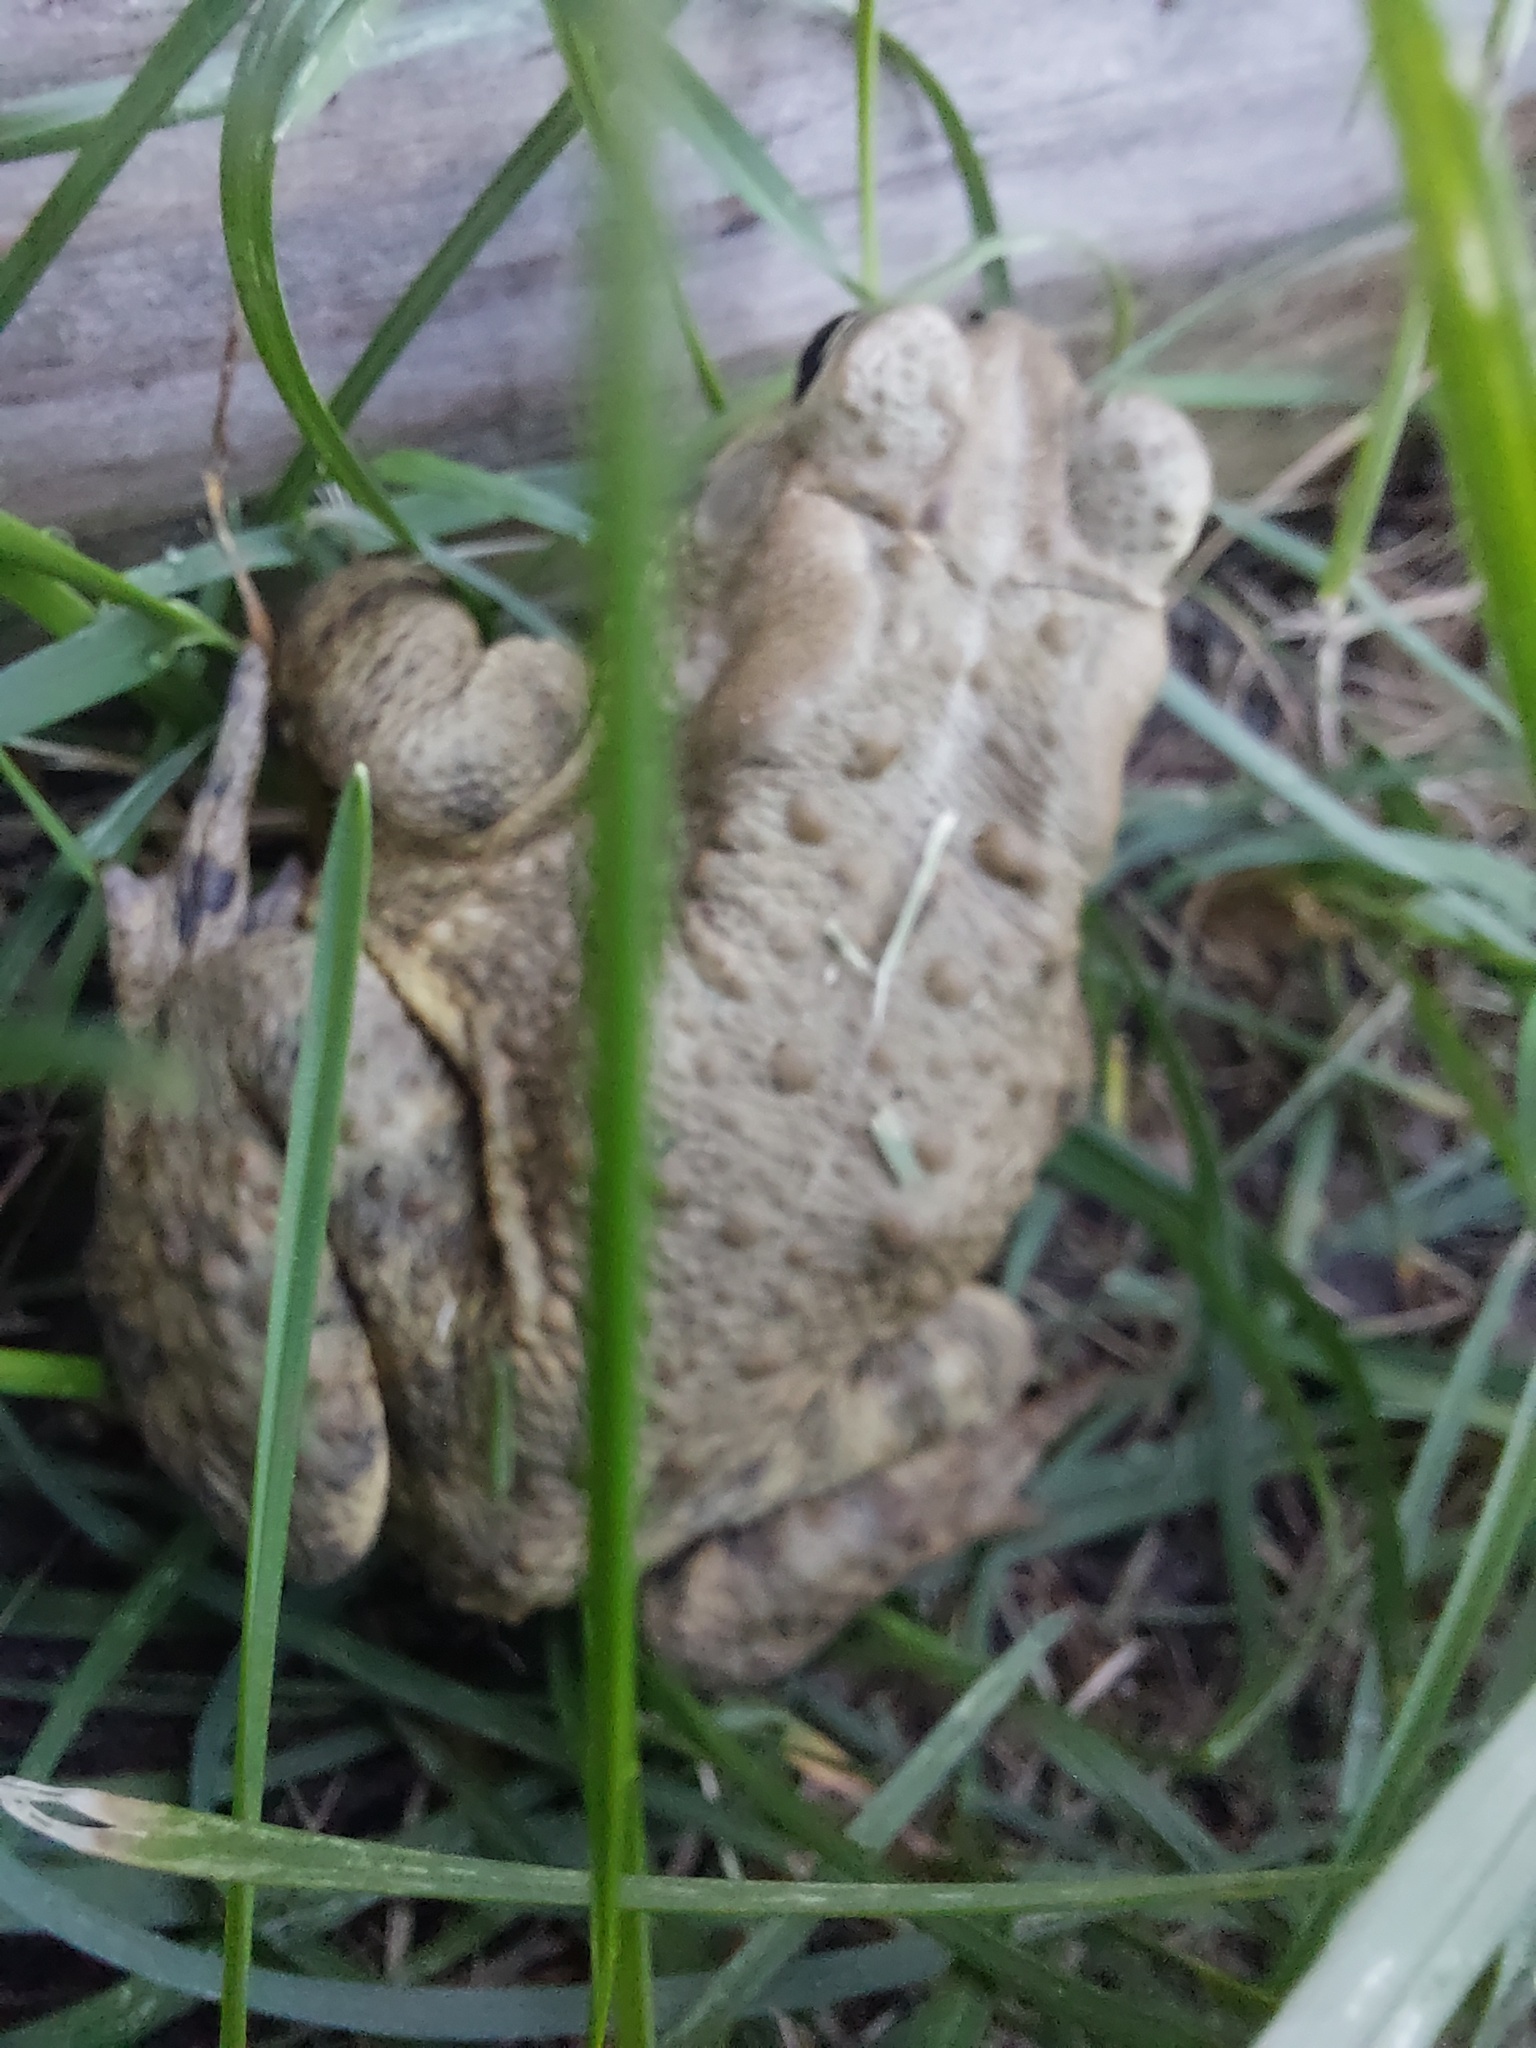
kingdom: Animalia
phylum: Chordata
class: Amphibia
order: Anura
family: Bufonidae
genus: Anaxyrus
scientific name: Anaxyrus americanus
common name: American toad
